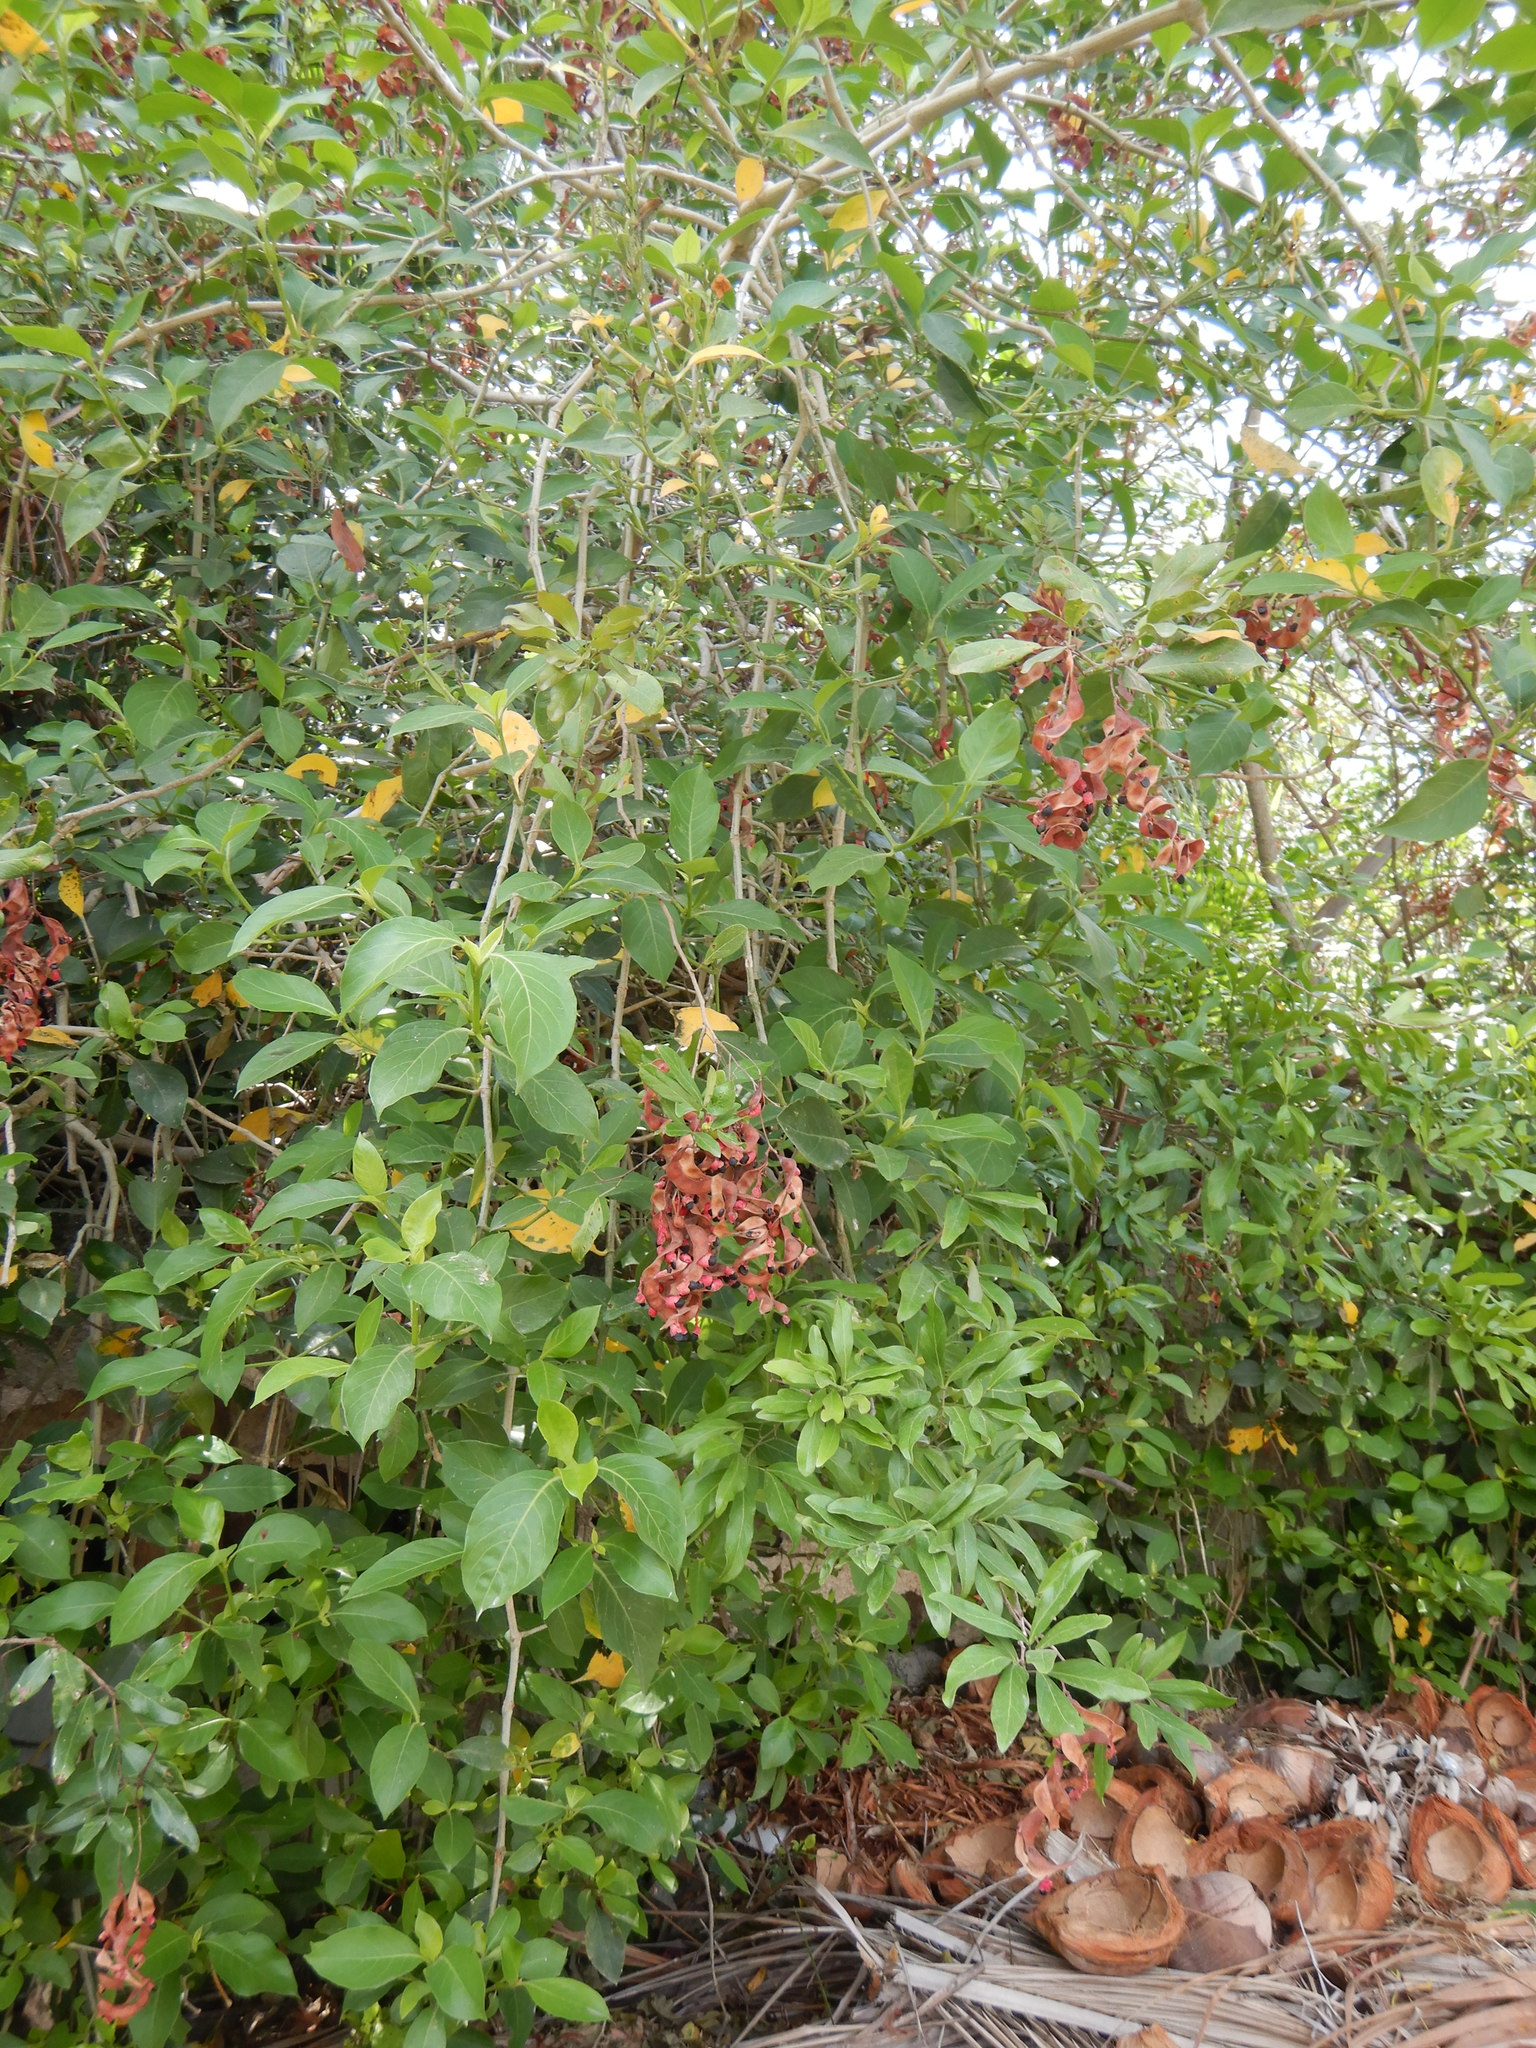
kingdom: Plantae
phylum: Tracheophyta
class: Magnoliopsida
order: Fabales
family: Fabaceae
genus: Pithecellobium
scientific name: Pithecellobium keyense
